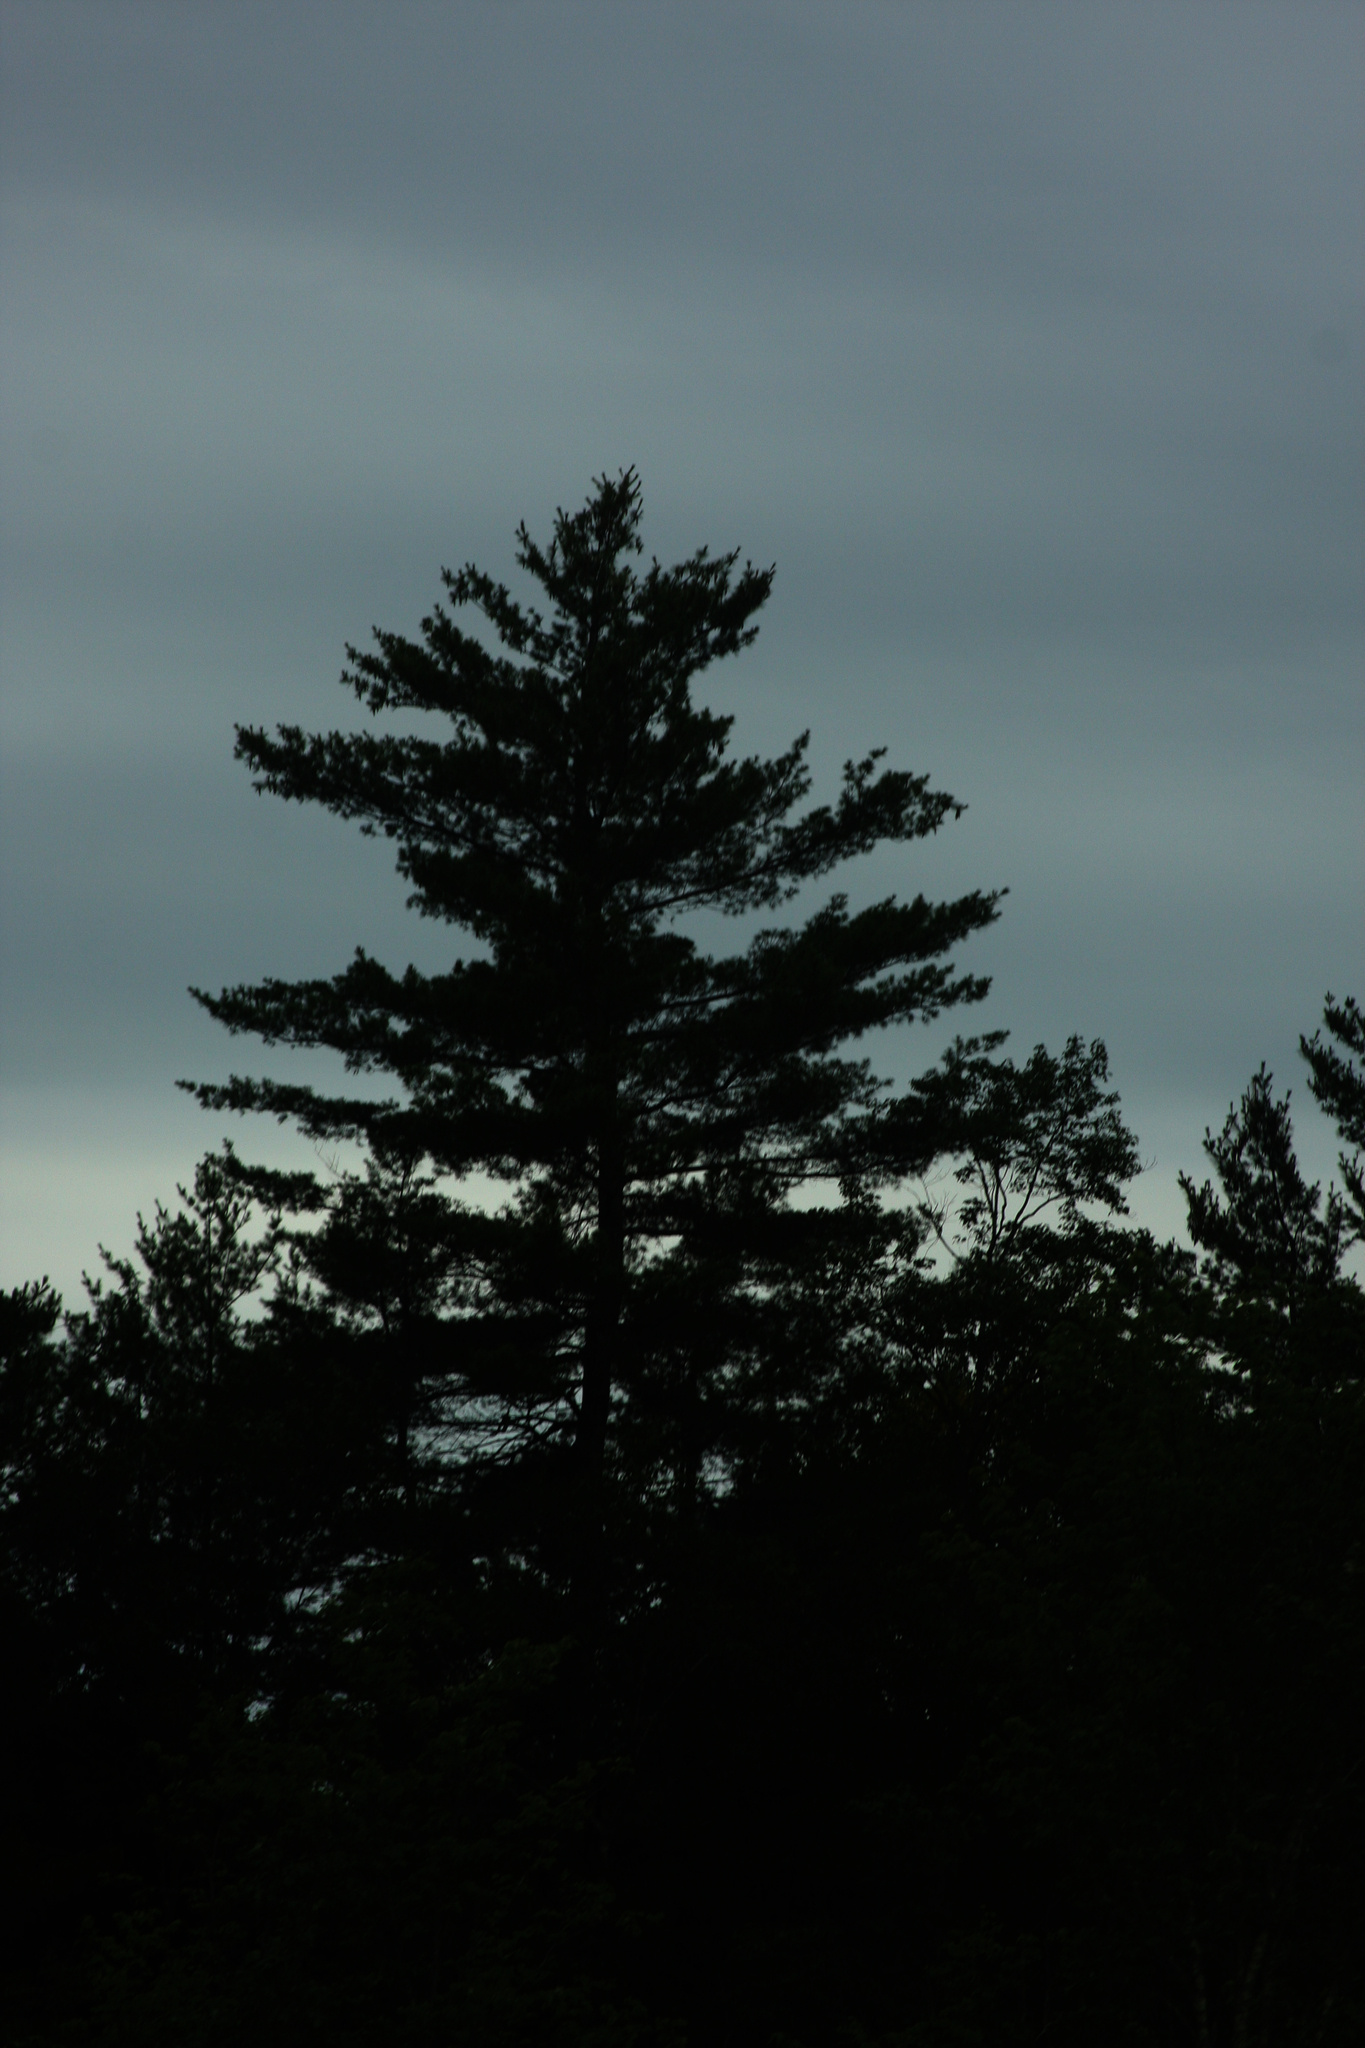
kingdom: Plantae
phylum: Tracheophyta
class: Pinopsida
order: Pinales
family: Pinaceae
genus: Pinus
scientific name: Pinus strobus
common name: Weymouth pine
